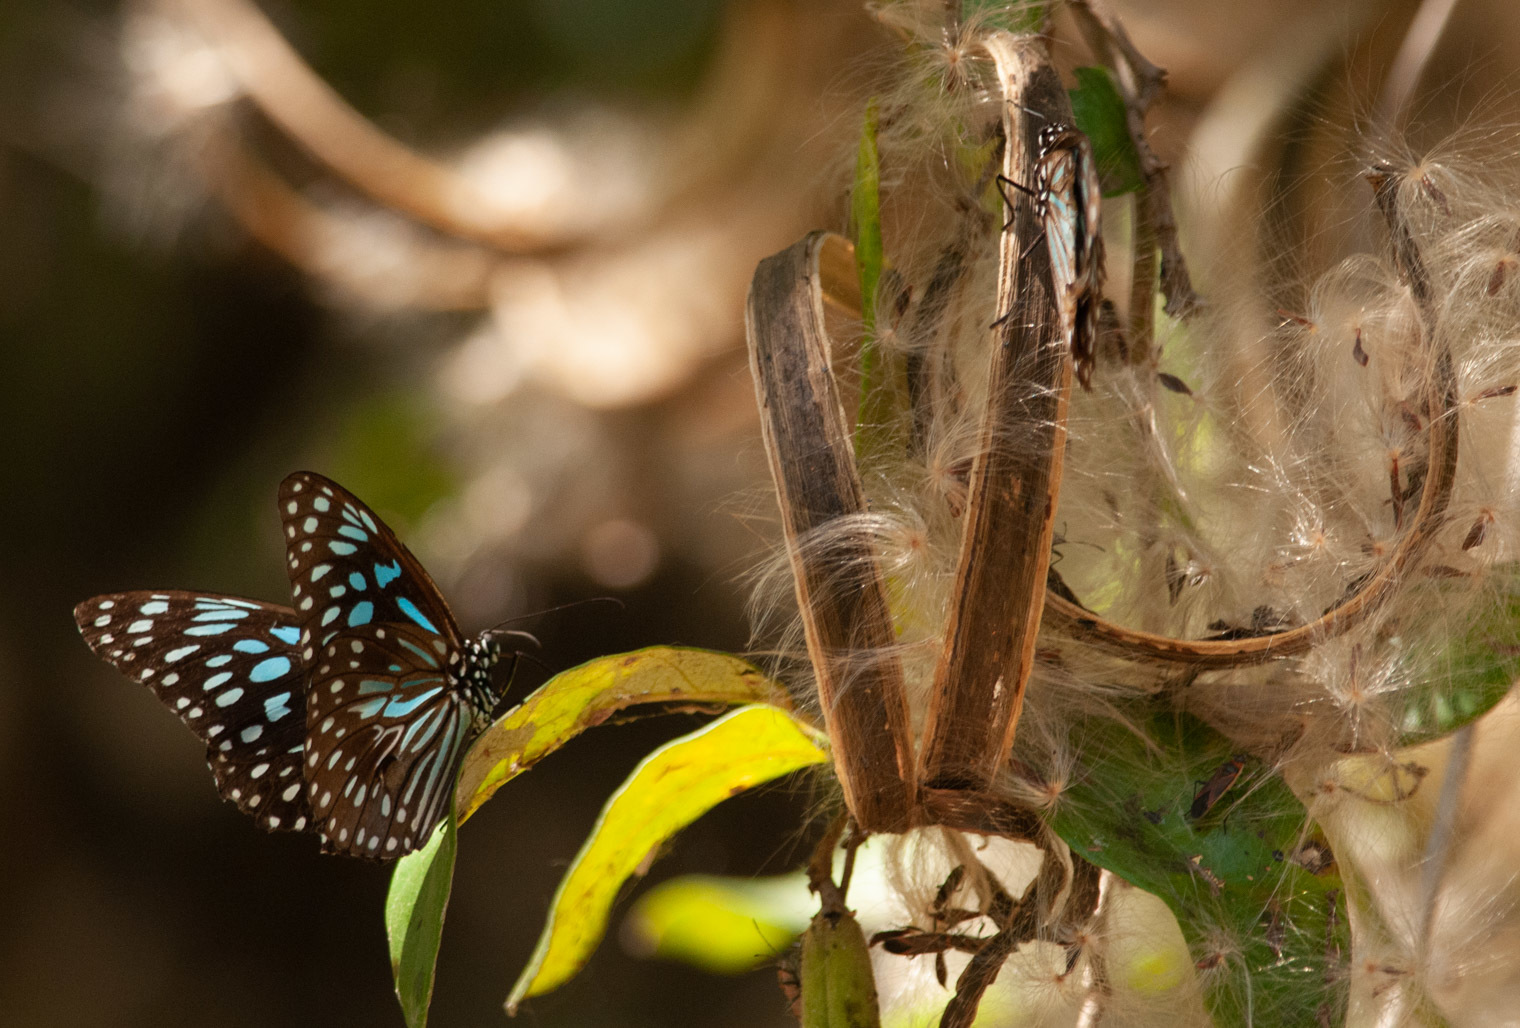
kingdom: Animalia
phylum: Arthropoda
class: Insecta
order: Lepidoptera
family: Nymphalidae
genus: Tirumala
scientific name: Tirumala hamata
